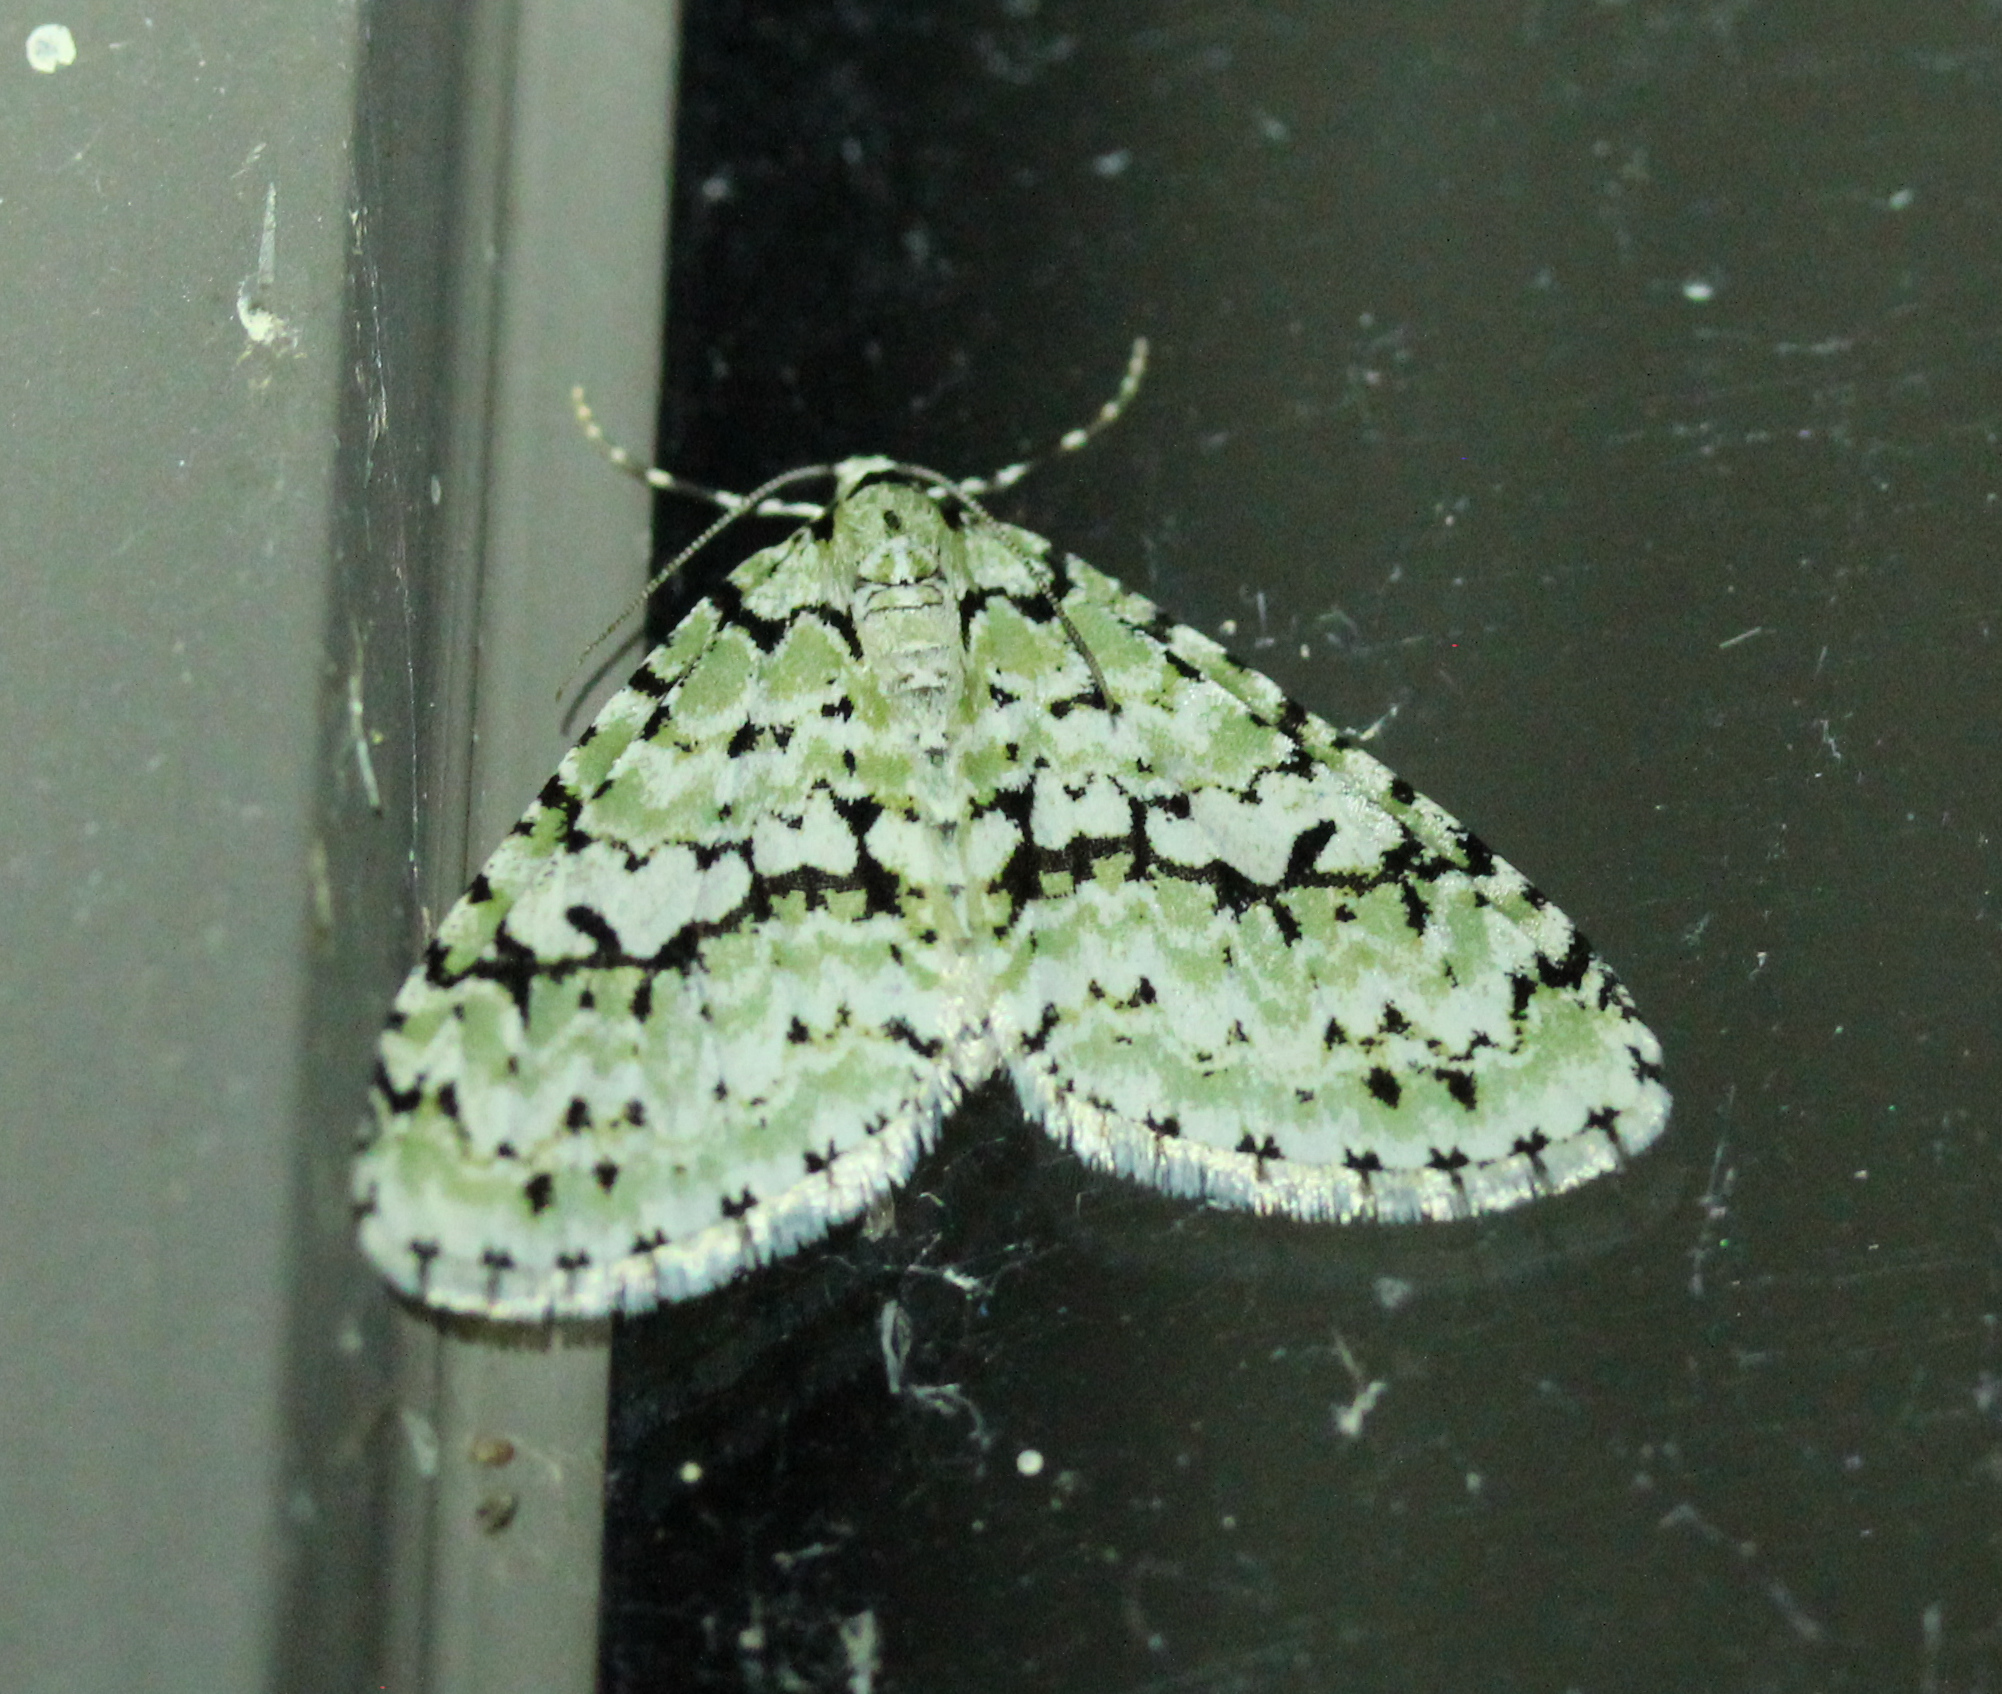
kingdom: Animalia
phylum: Arthropoda
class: Insecta
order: Lepidoptera
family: Geometridae
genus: Cladara
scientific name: Cladara atroliturata
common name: Scribbler
